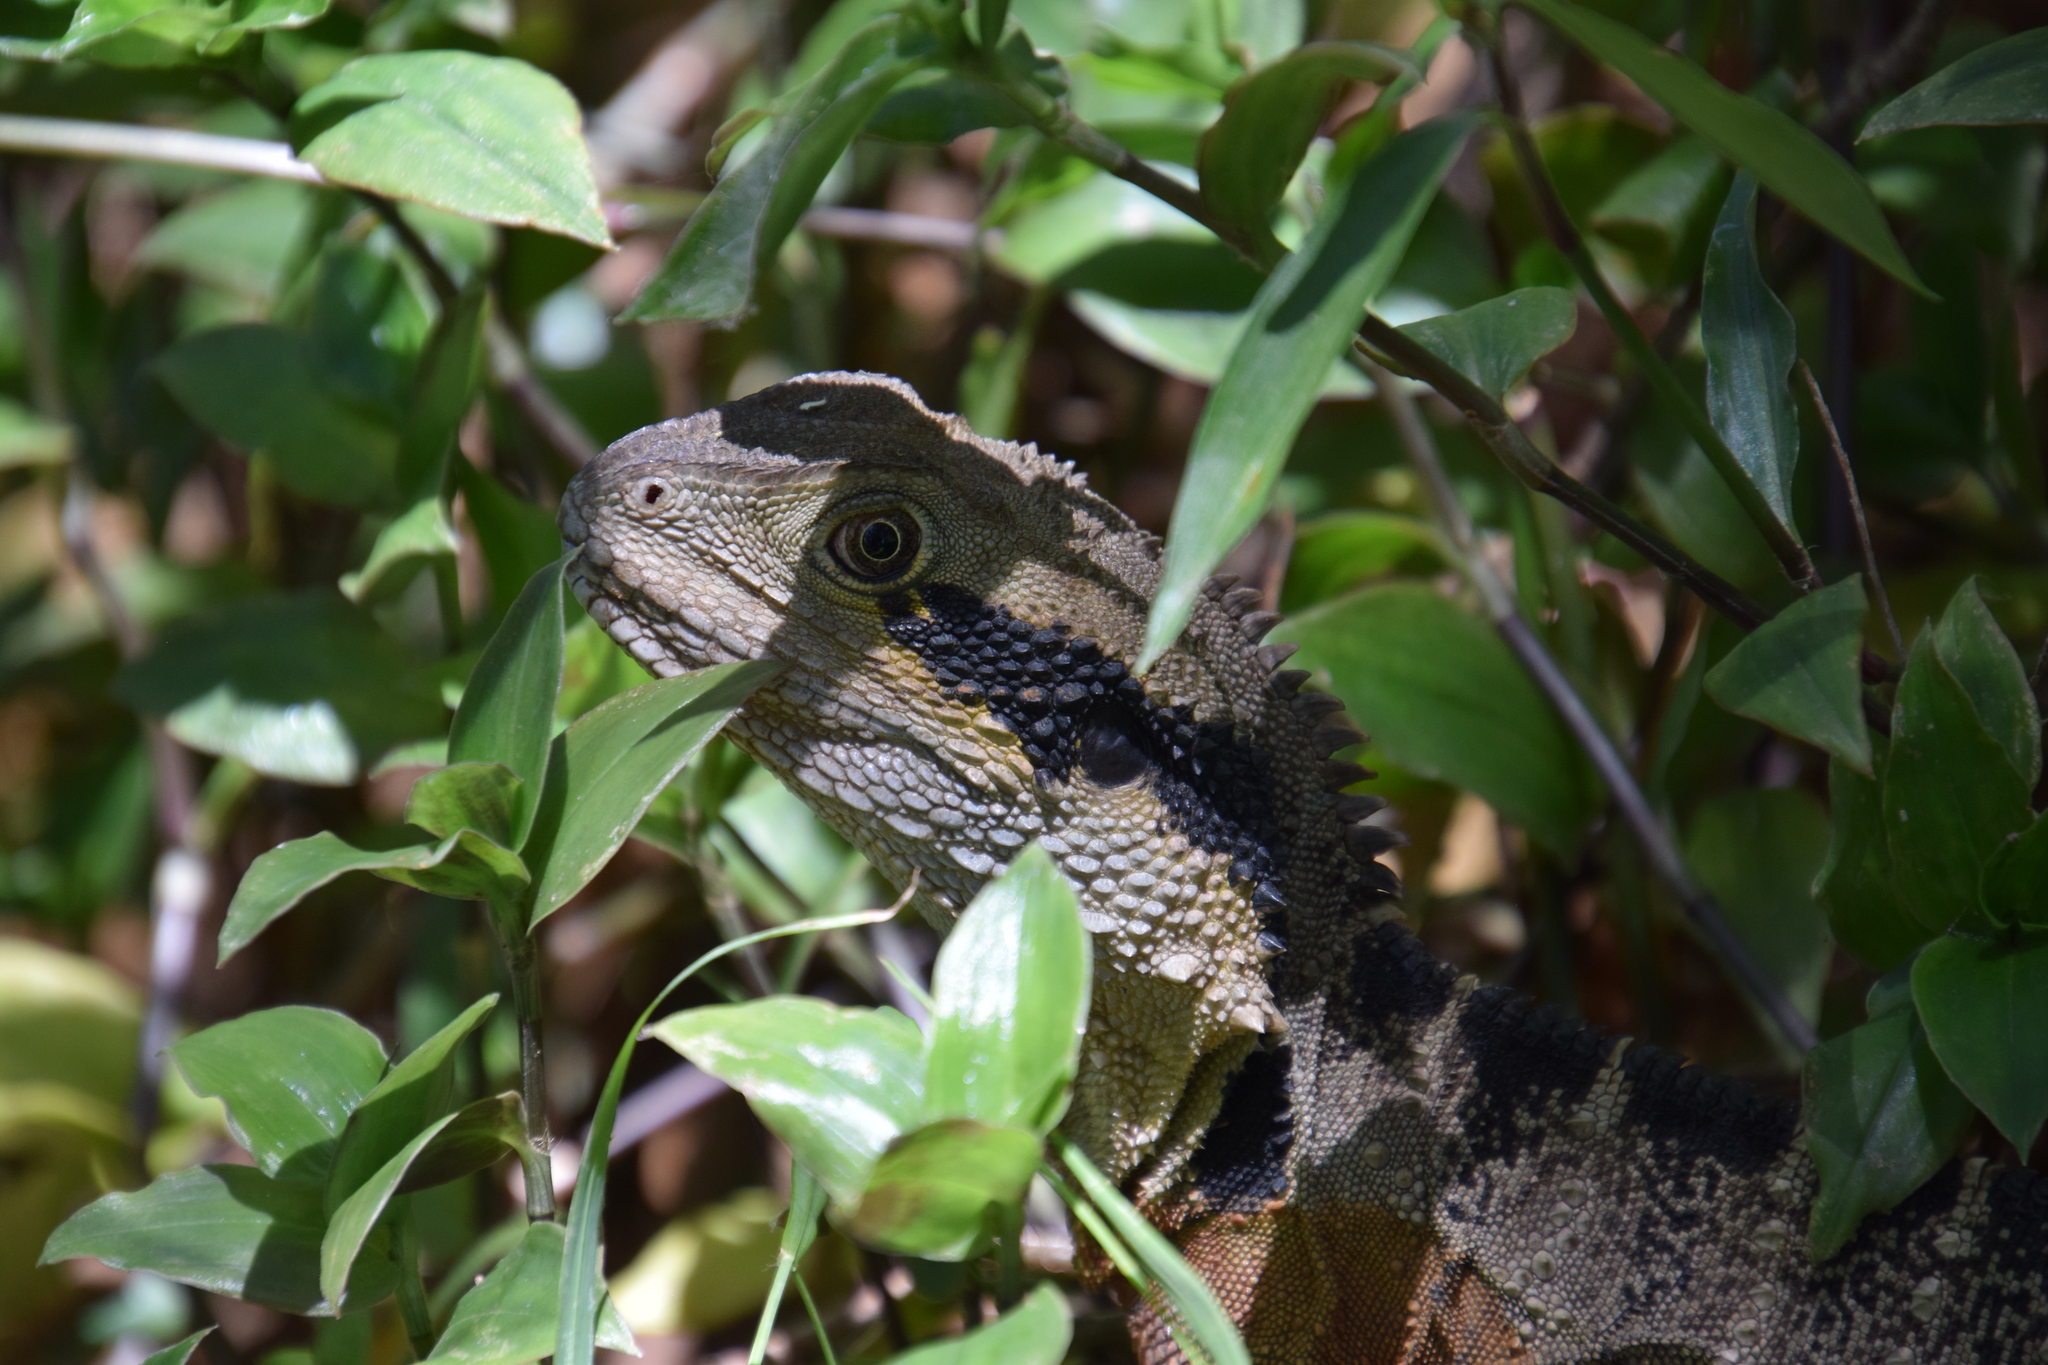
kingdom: Animalia
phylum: Chordata
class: Squamata
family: Agamidae
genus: Intellagama
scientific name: Intellagama lesueurii
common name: Eastern water dragon
